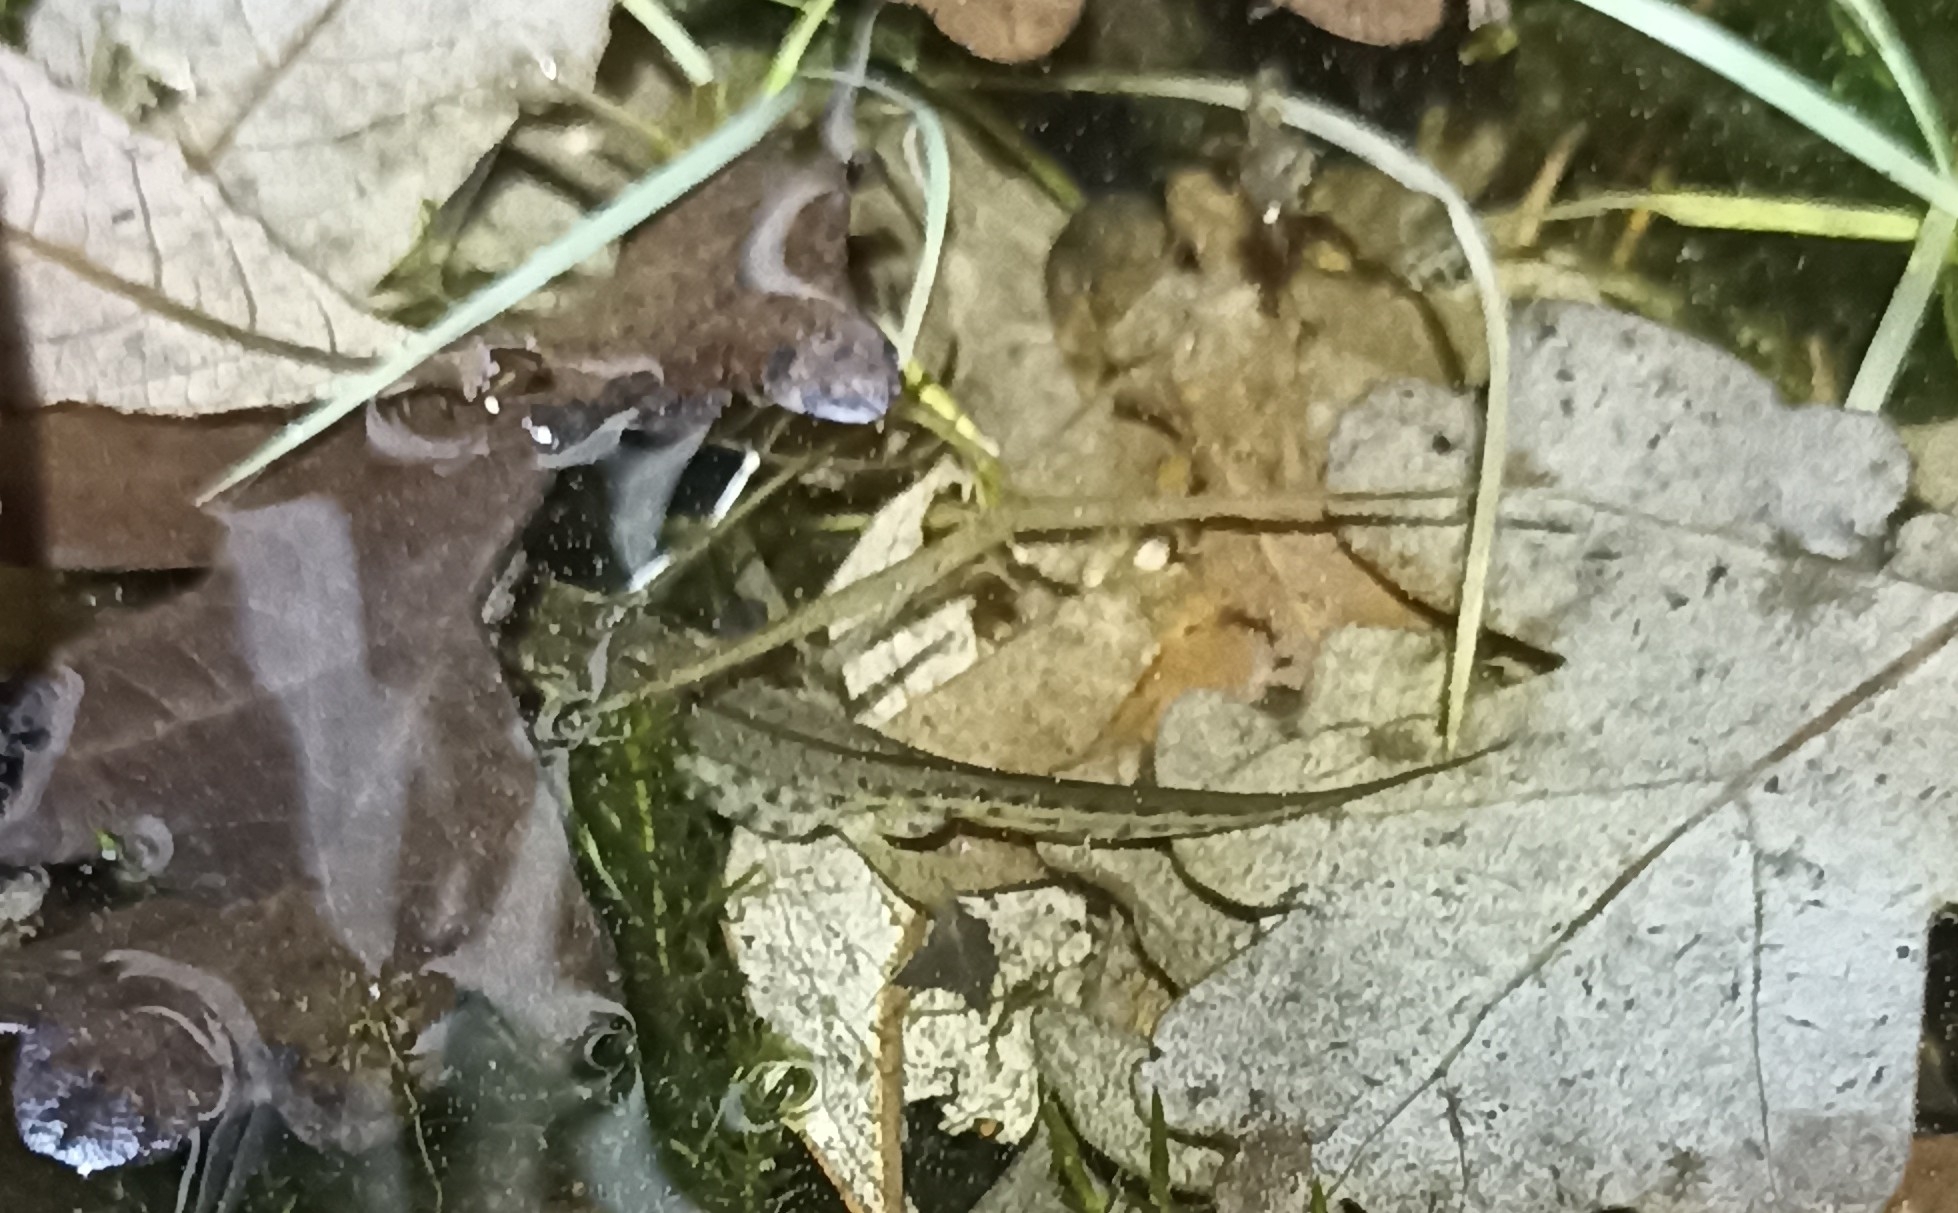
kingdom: Animalia
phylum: Chordata
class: Amphibia
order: Caudata
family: Salamandridae
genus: Lissotriton
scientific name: Lissotriton helveticus
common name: Palmate newt
